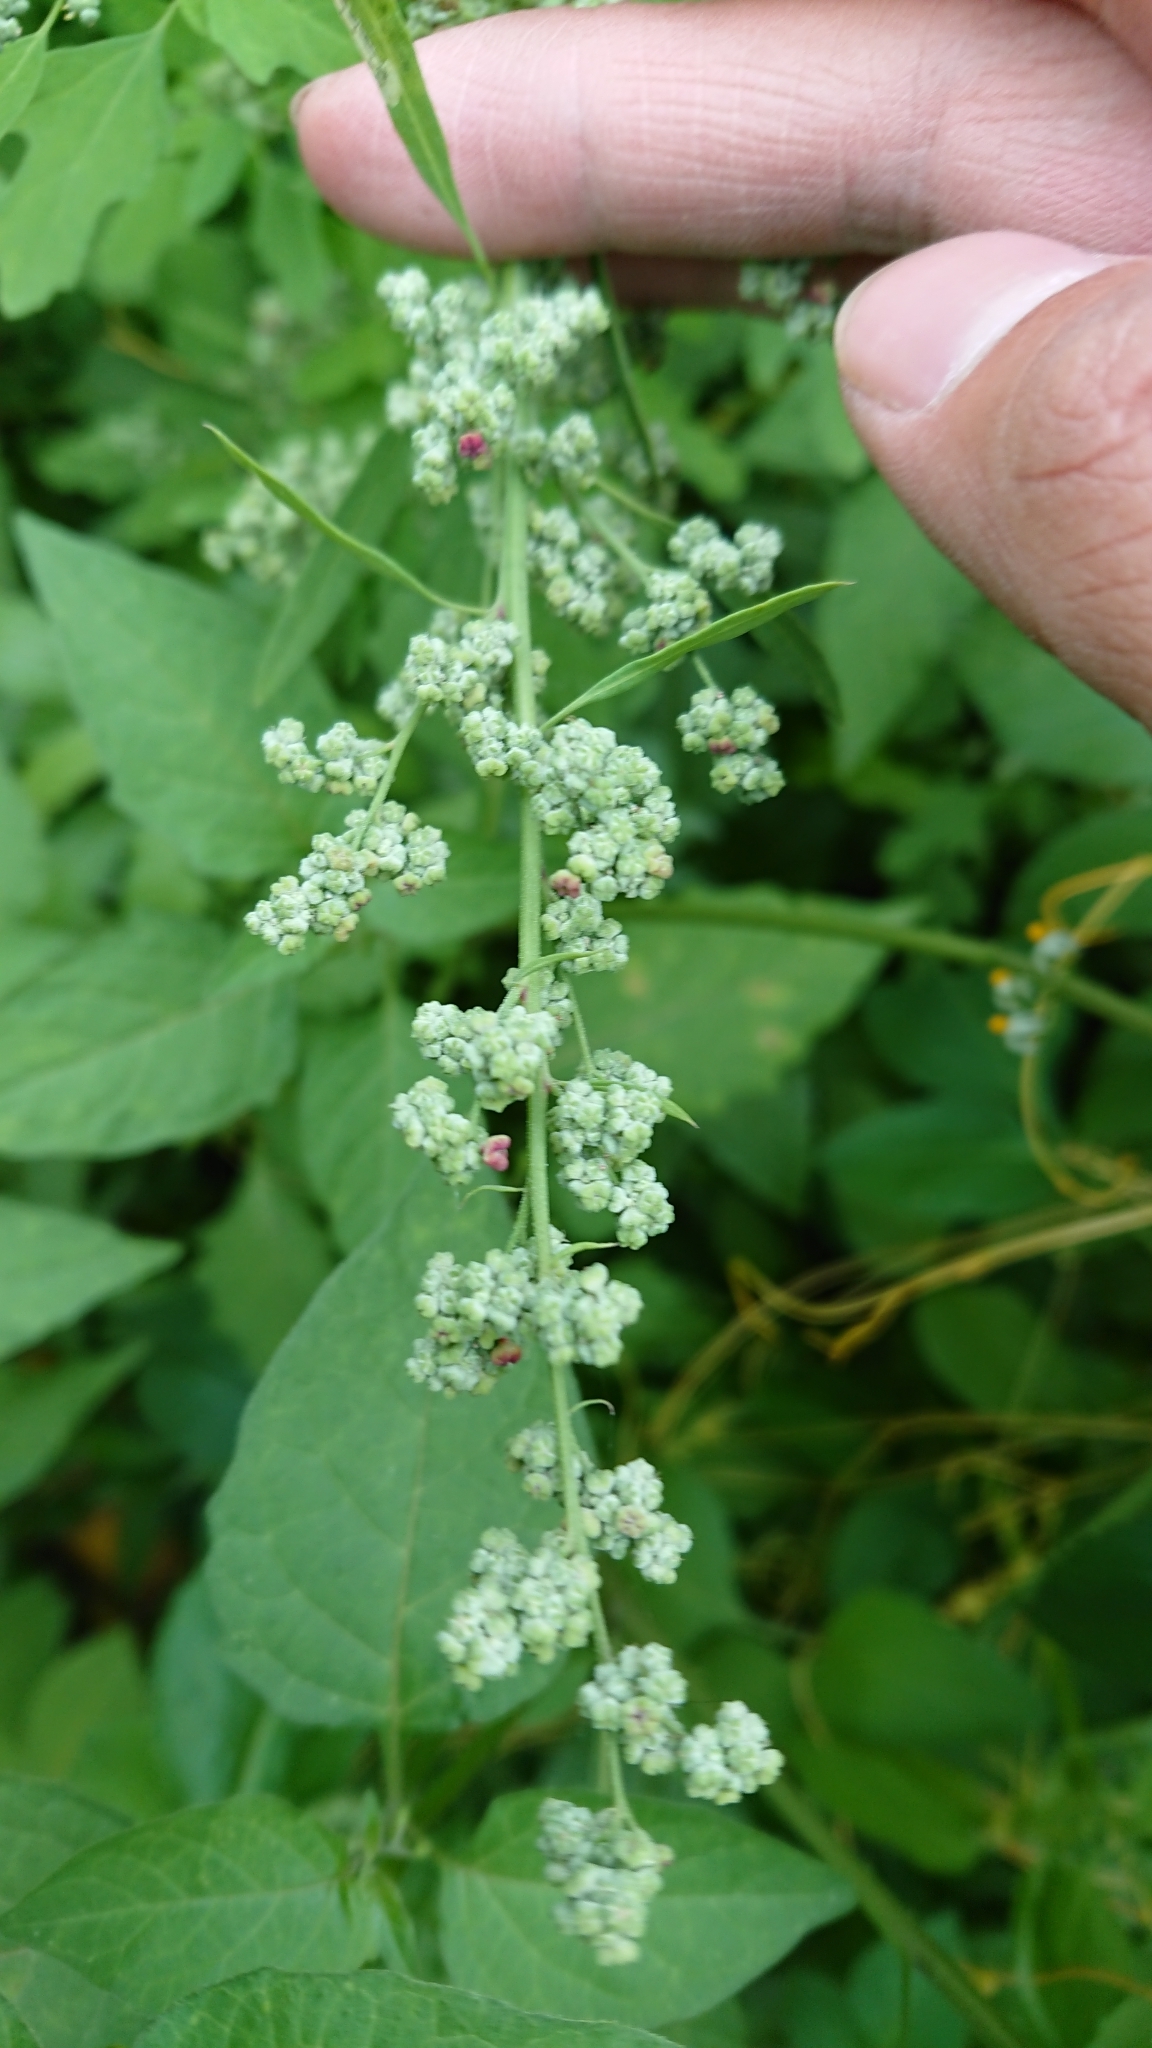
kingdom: Plantae
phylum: Tracheophyta
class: Magnoliopsida
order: Caryophyllales
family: Amaranthaceae
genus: Chenopodium
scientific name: Chenopodium ficifolium
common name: Fig-leaved goosefoot
